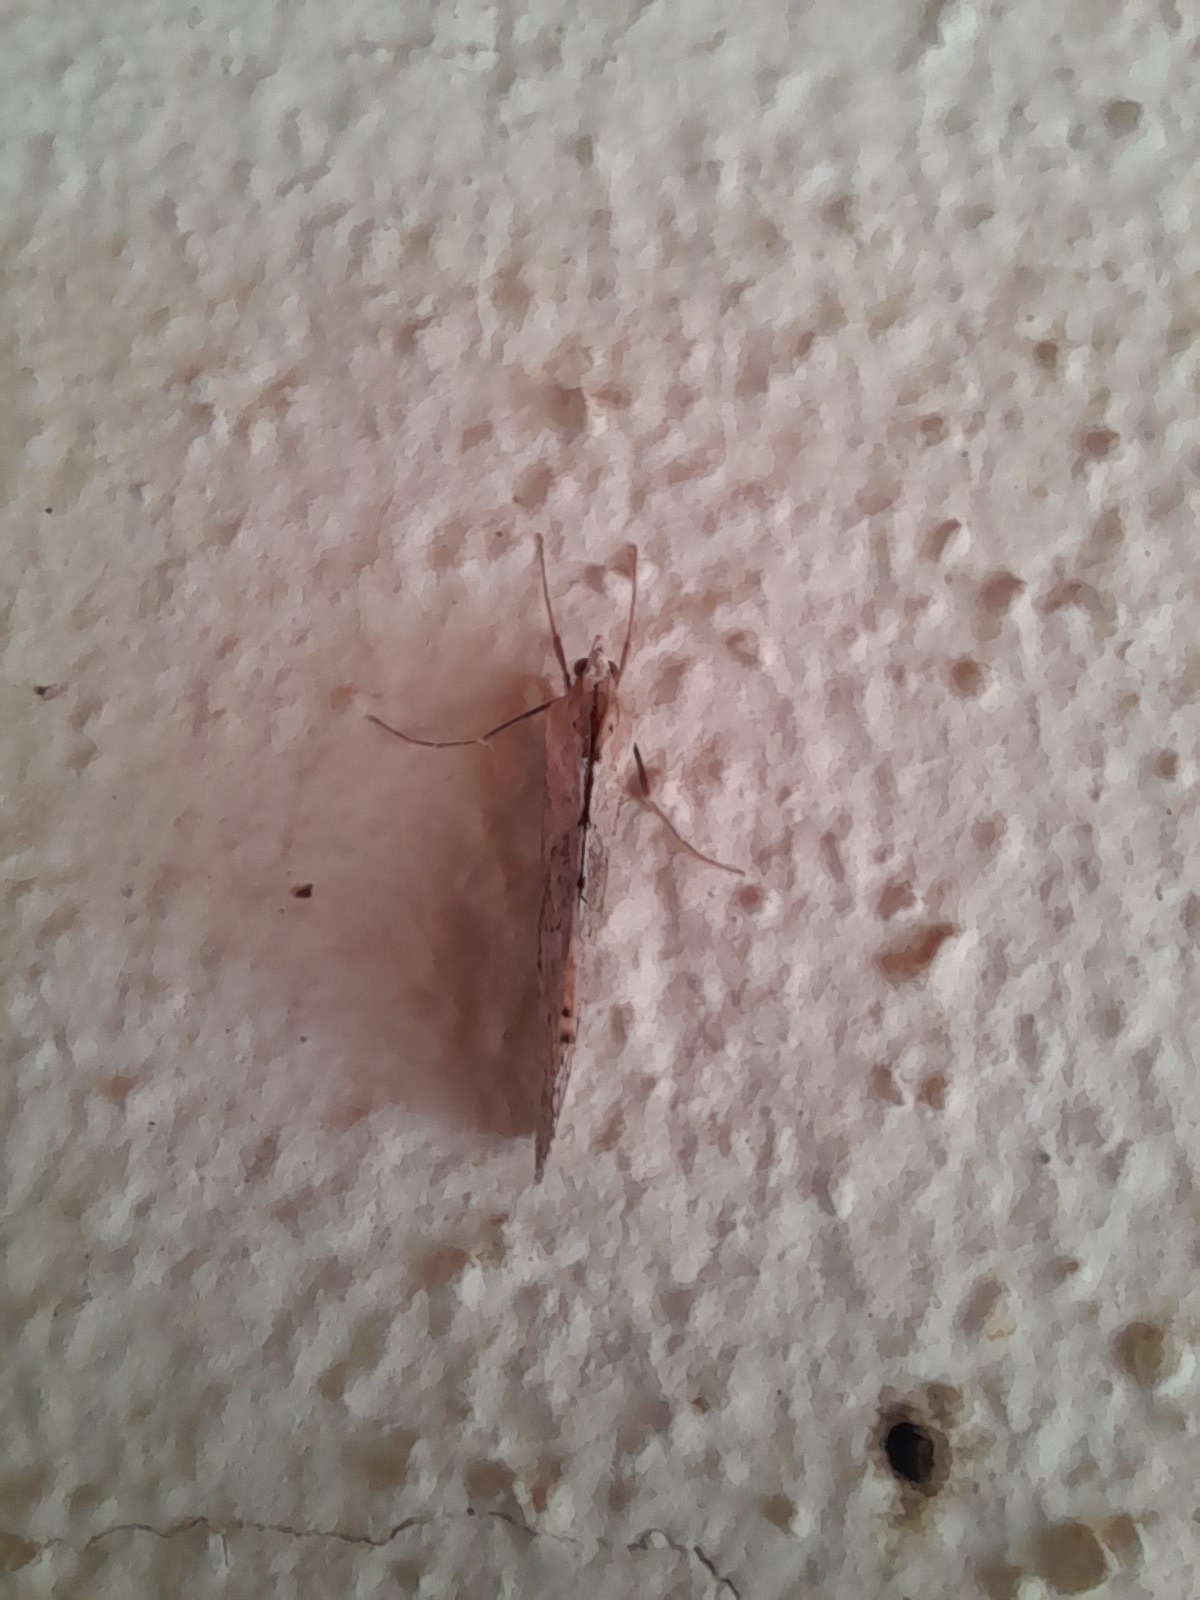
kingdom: Animalia
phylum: Arthropoda
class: Insecta
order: Lepidoptera
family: Crambidae
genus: Evergestis
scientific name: Evergestis isatidalis
